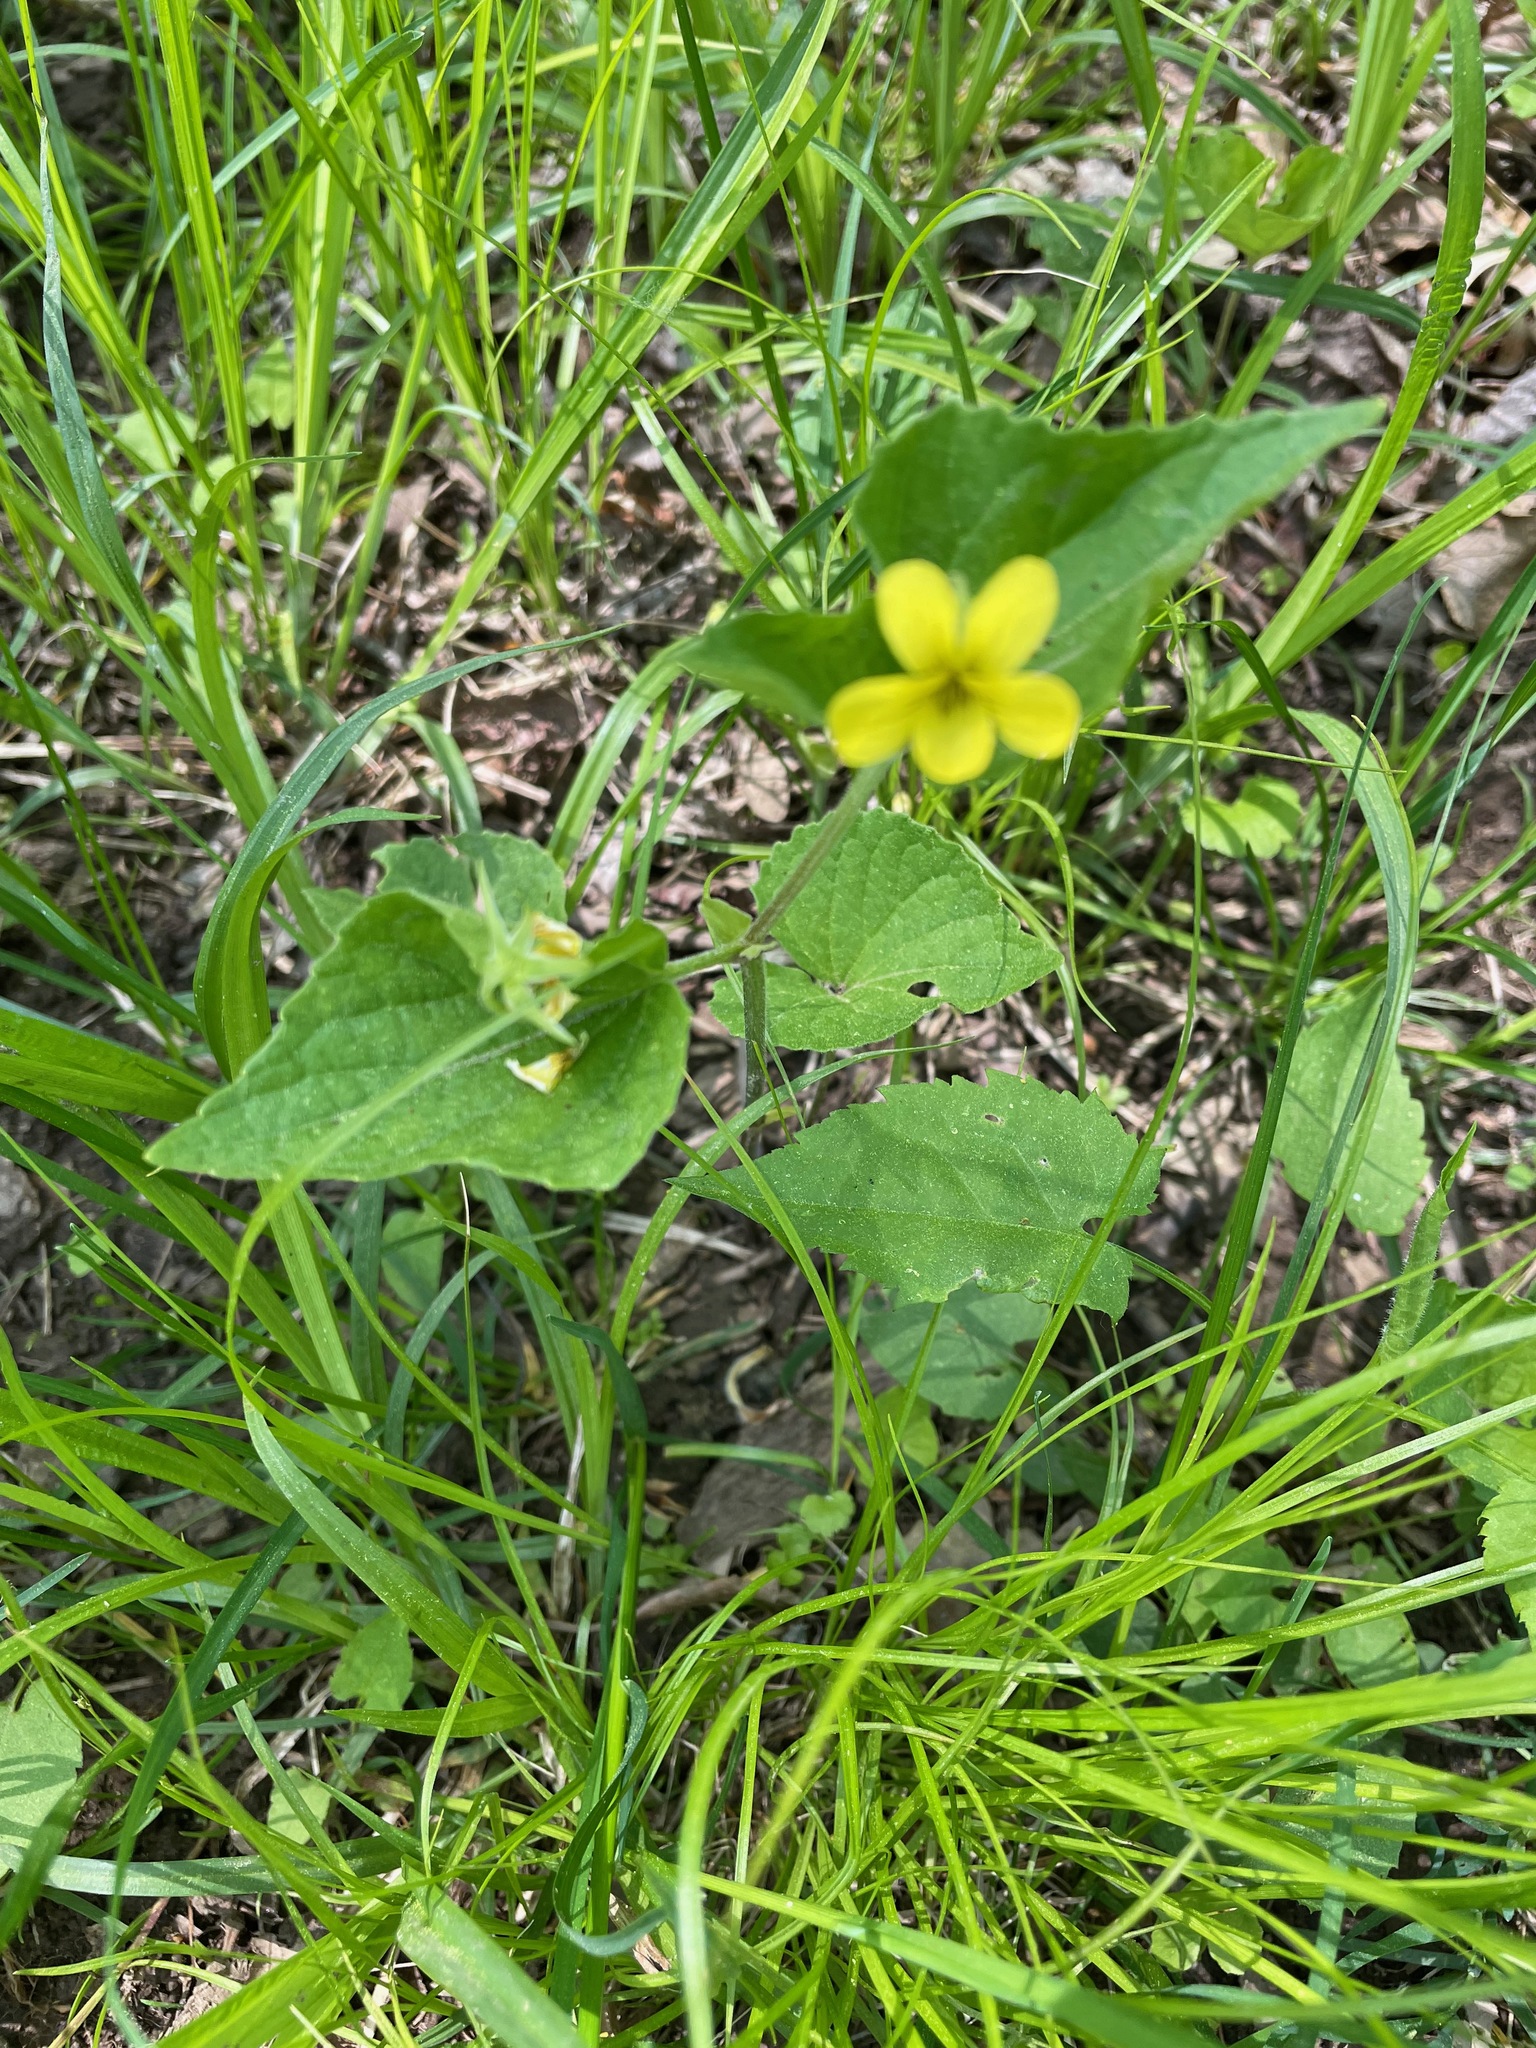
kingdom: Plantae
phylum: Tracheophyta
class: Magnoliopsida
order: Malpighiales
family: Violaceae
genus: Viola
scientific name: Viola eriocarpa
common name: Smooth yellow violet
